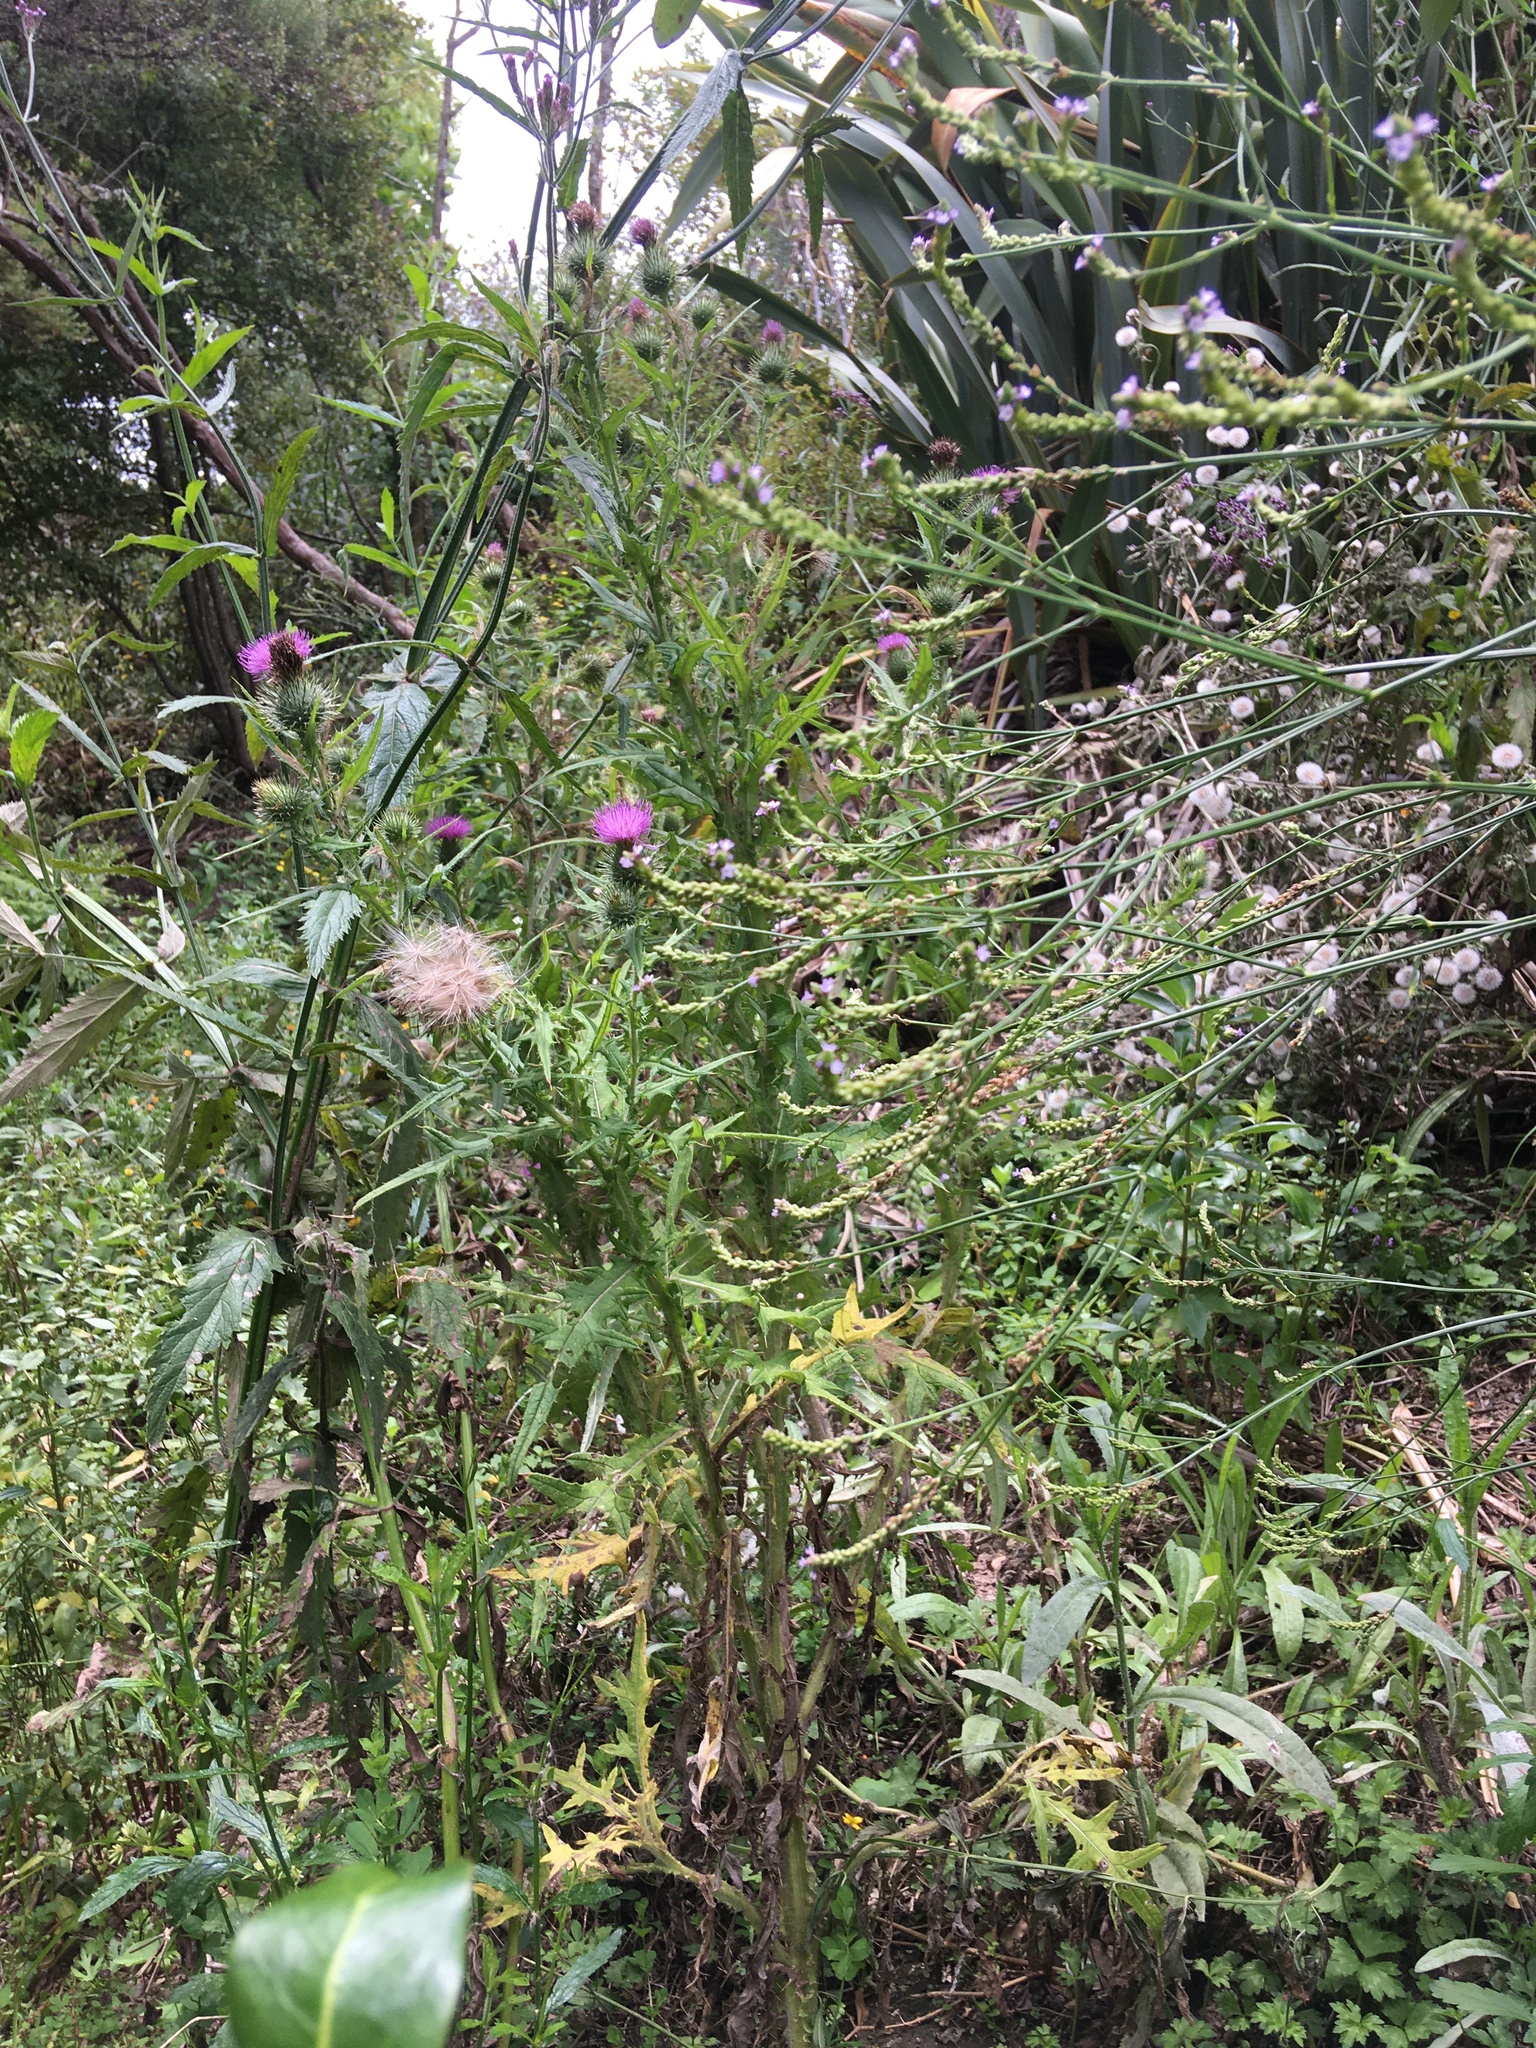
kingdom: Plantae
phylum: Tracheophyta
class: Magnoliopsida
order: Asterales
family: Asteraceae
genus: Cirsium
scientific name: Cirsium vulgare
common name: Bull thistle
